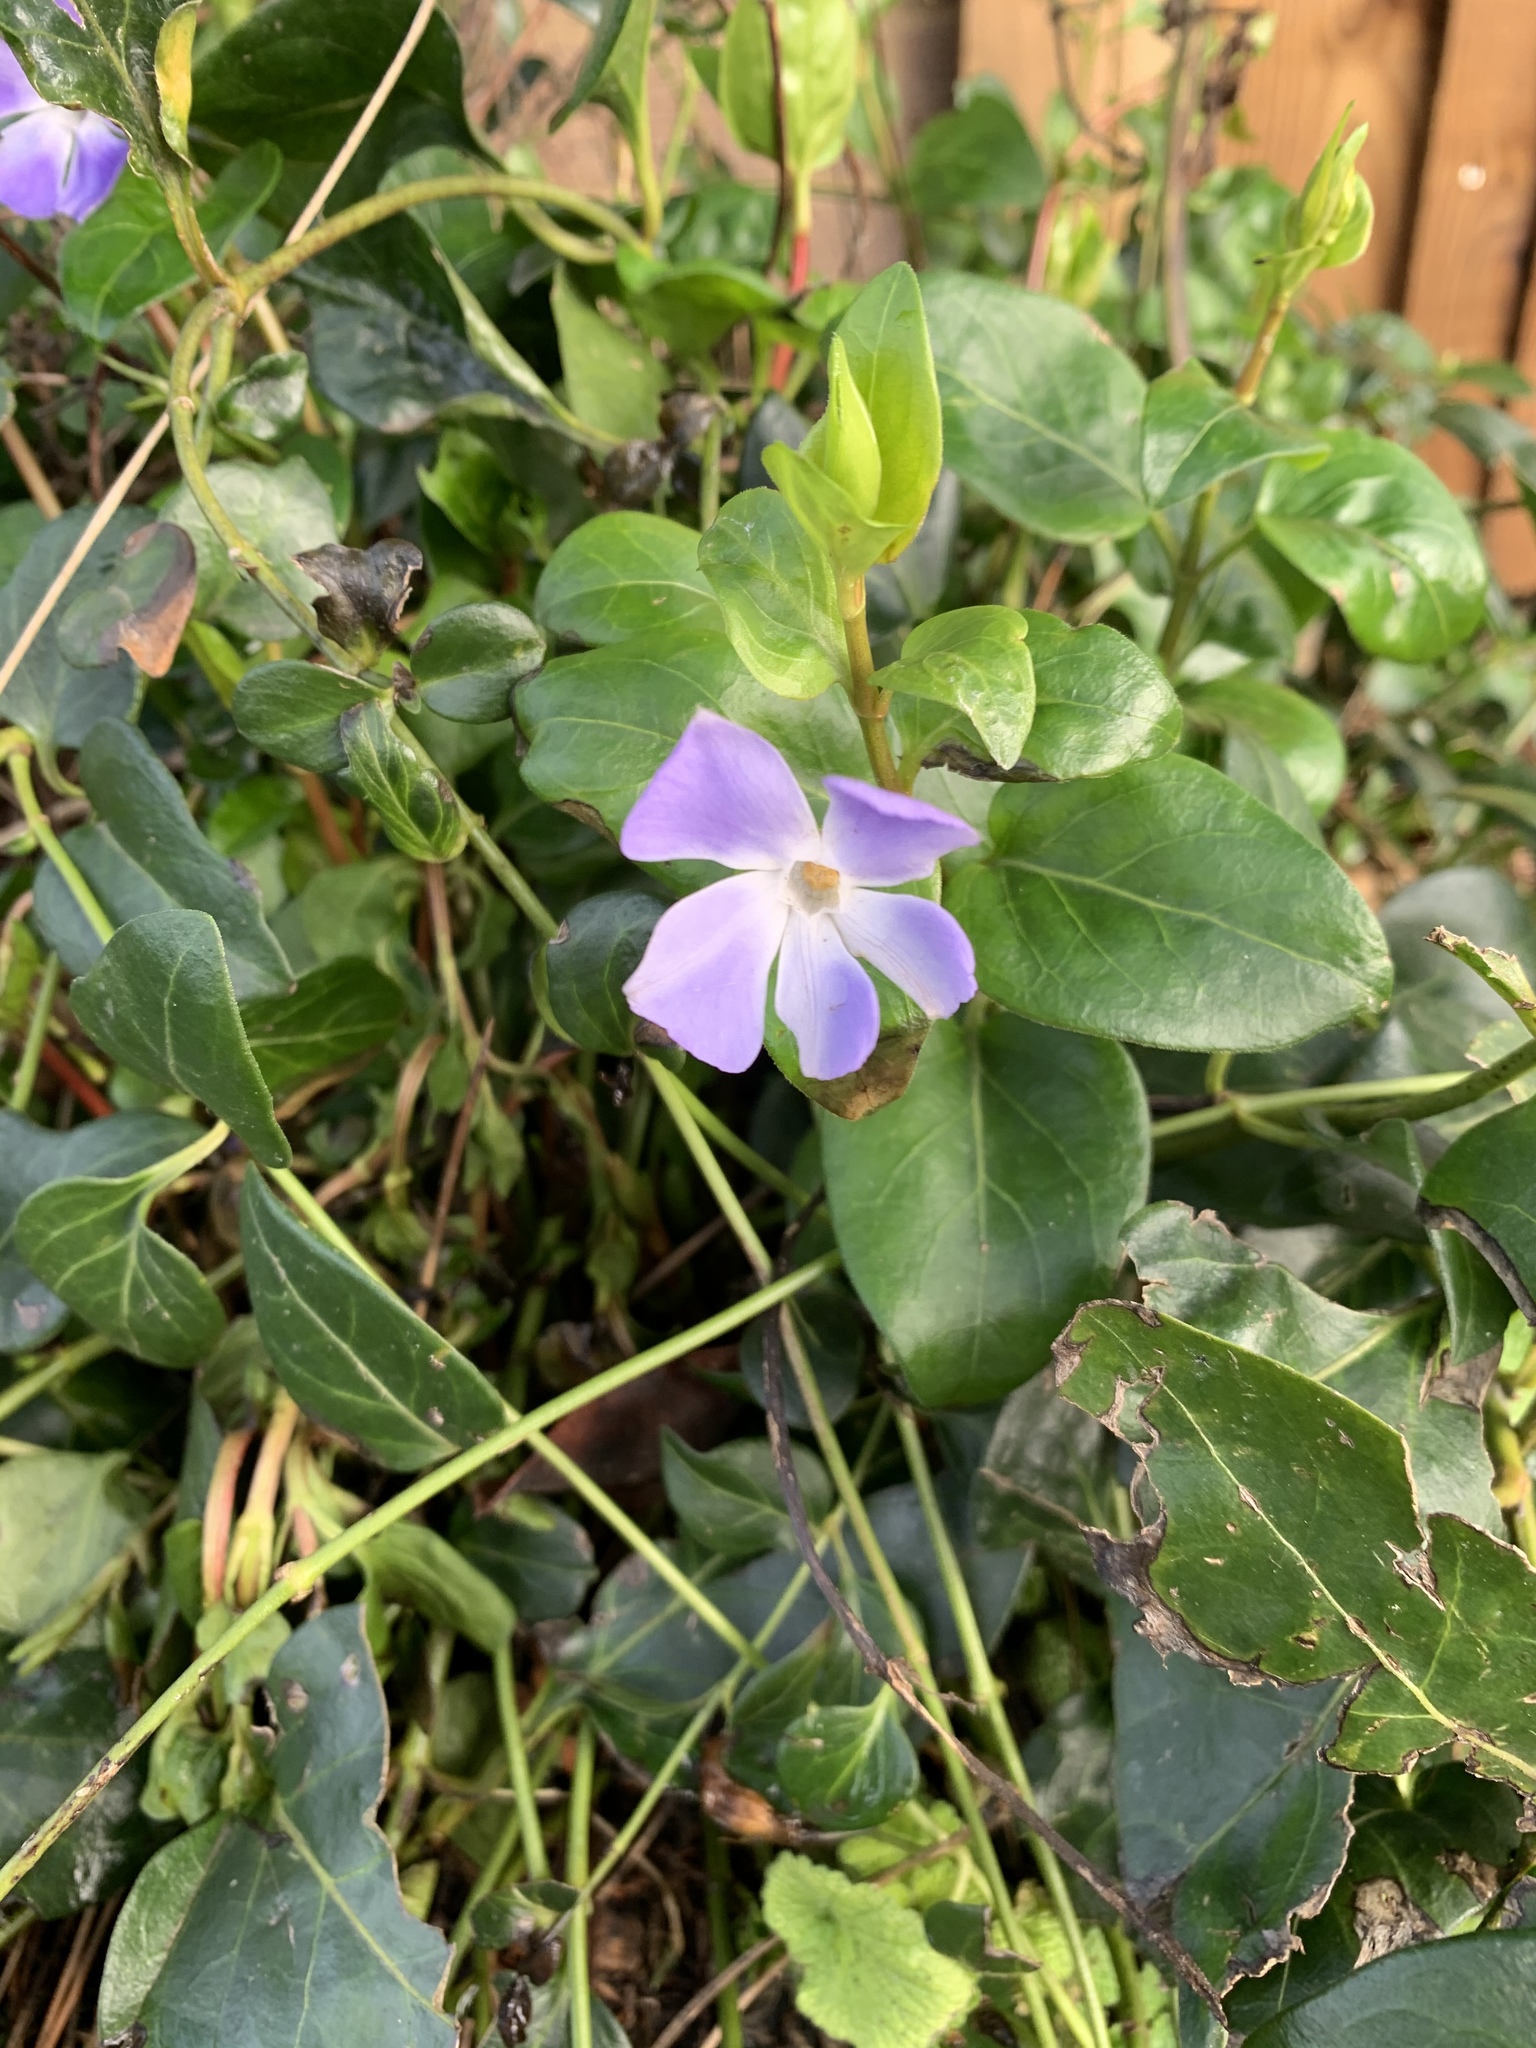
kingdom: Plantae
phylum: Tracheophyta
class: Magnoliopsida
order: Gentianales
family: Apocynaceae
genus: Vinca
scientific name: Vinca major
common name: Greater periwinkle
